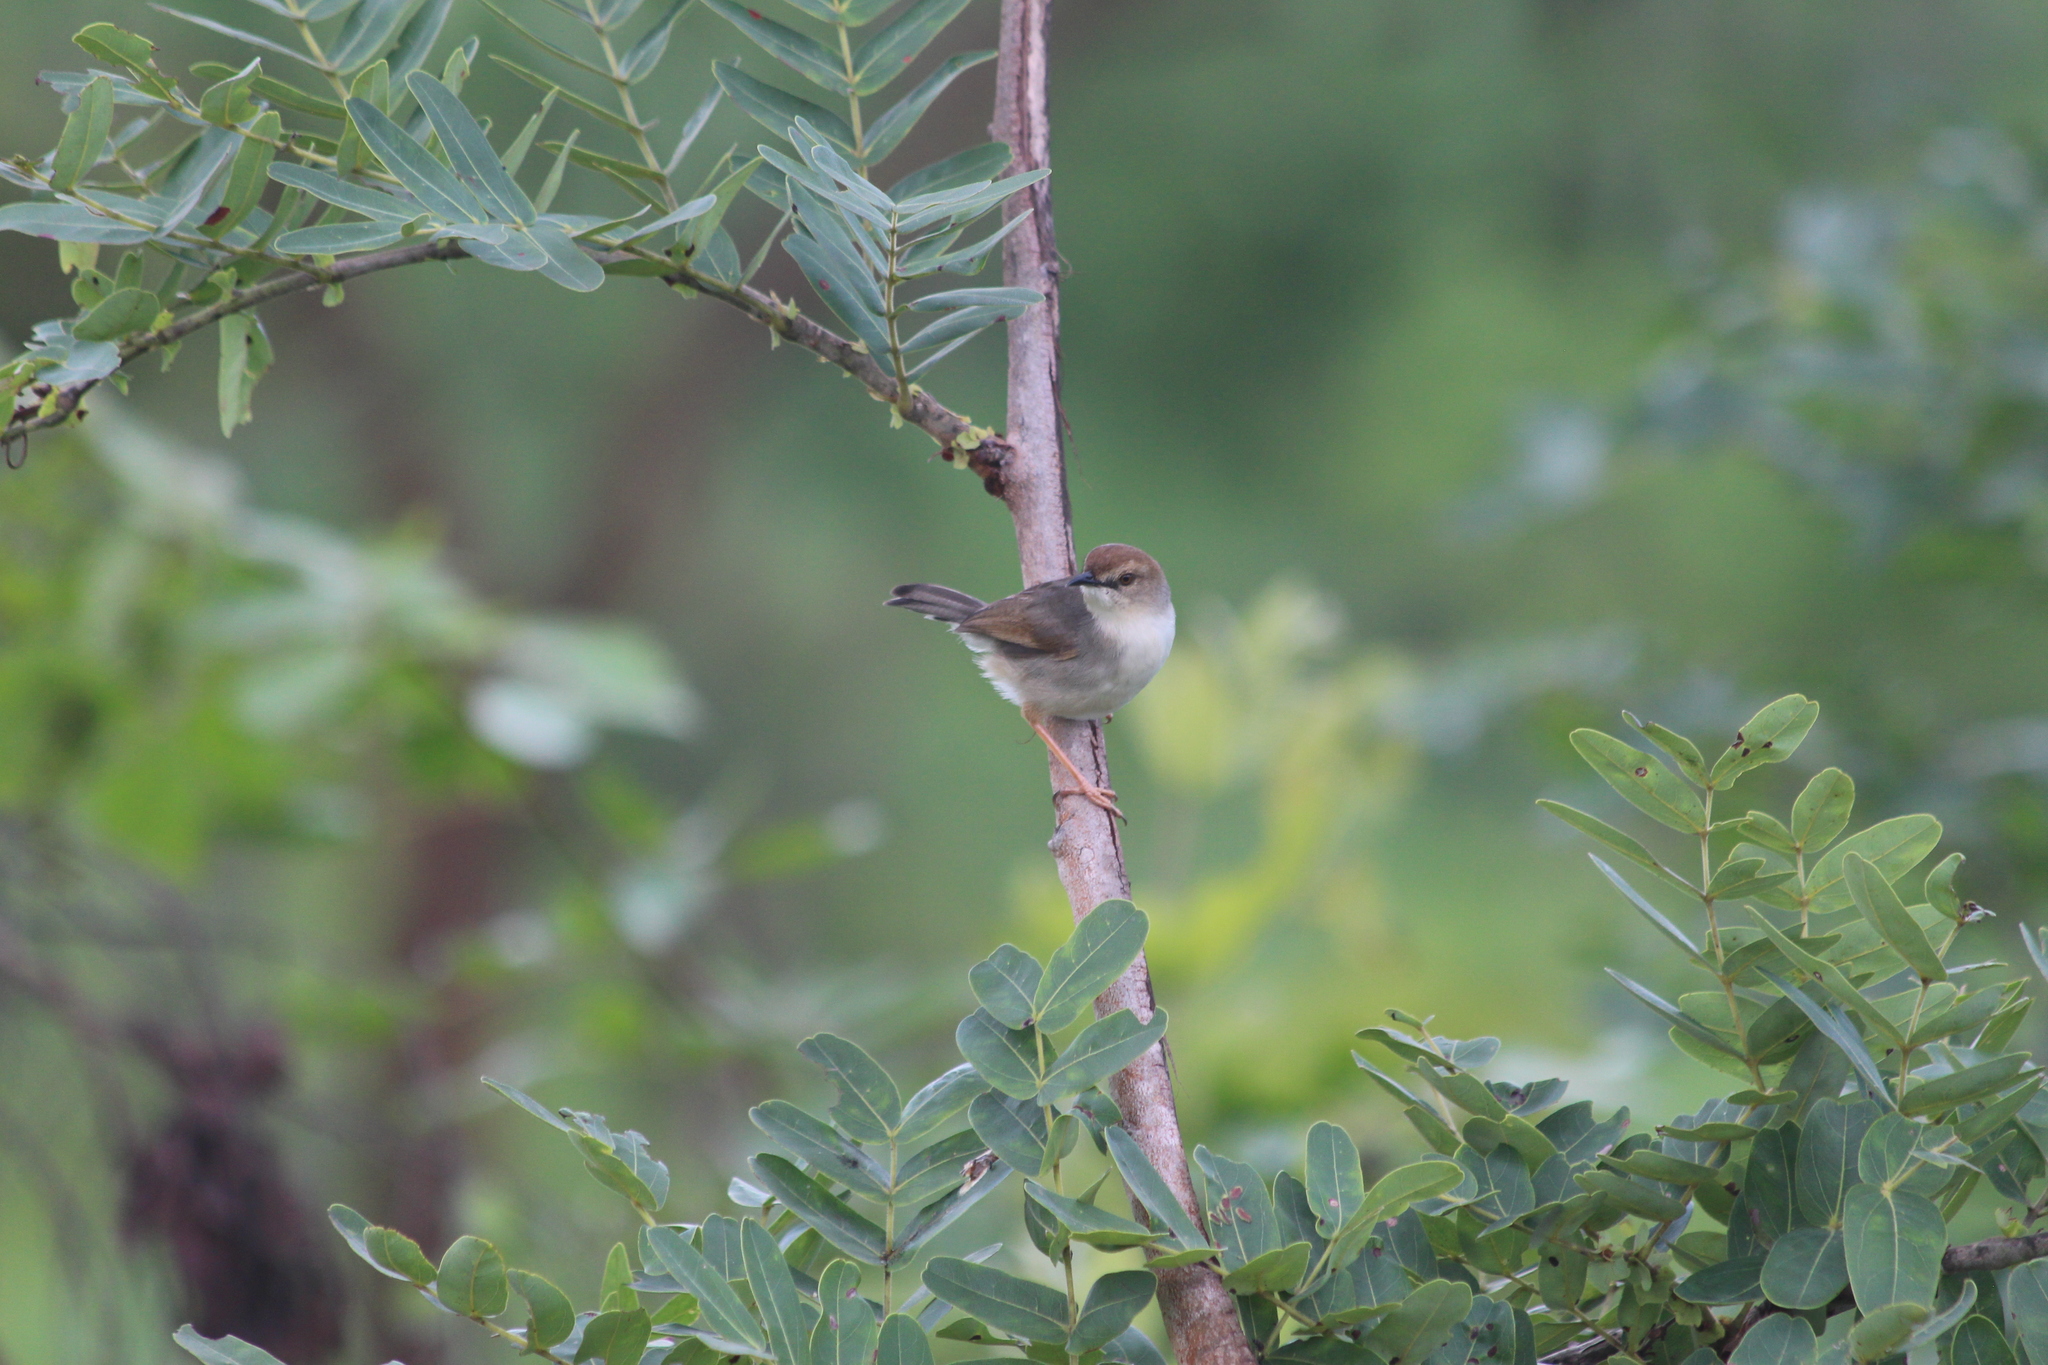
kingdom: Animalia
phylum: Chordata
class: Aves
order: Passeriformes
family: Cisticolidae
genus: Cisticola
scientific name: Cisticola cantans
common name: Singing cisticola
